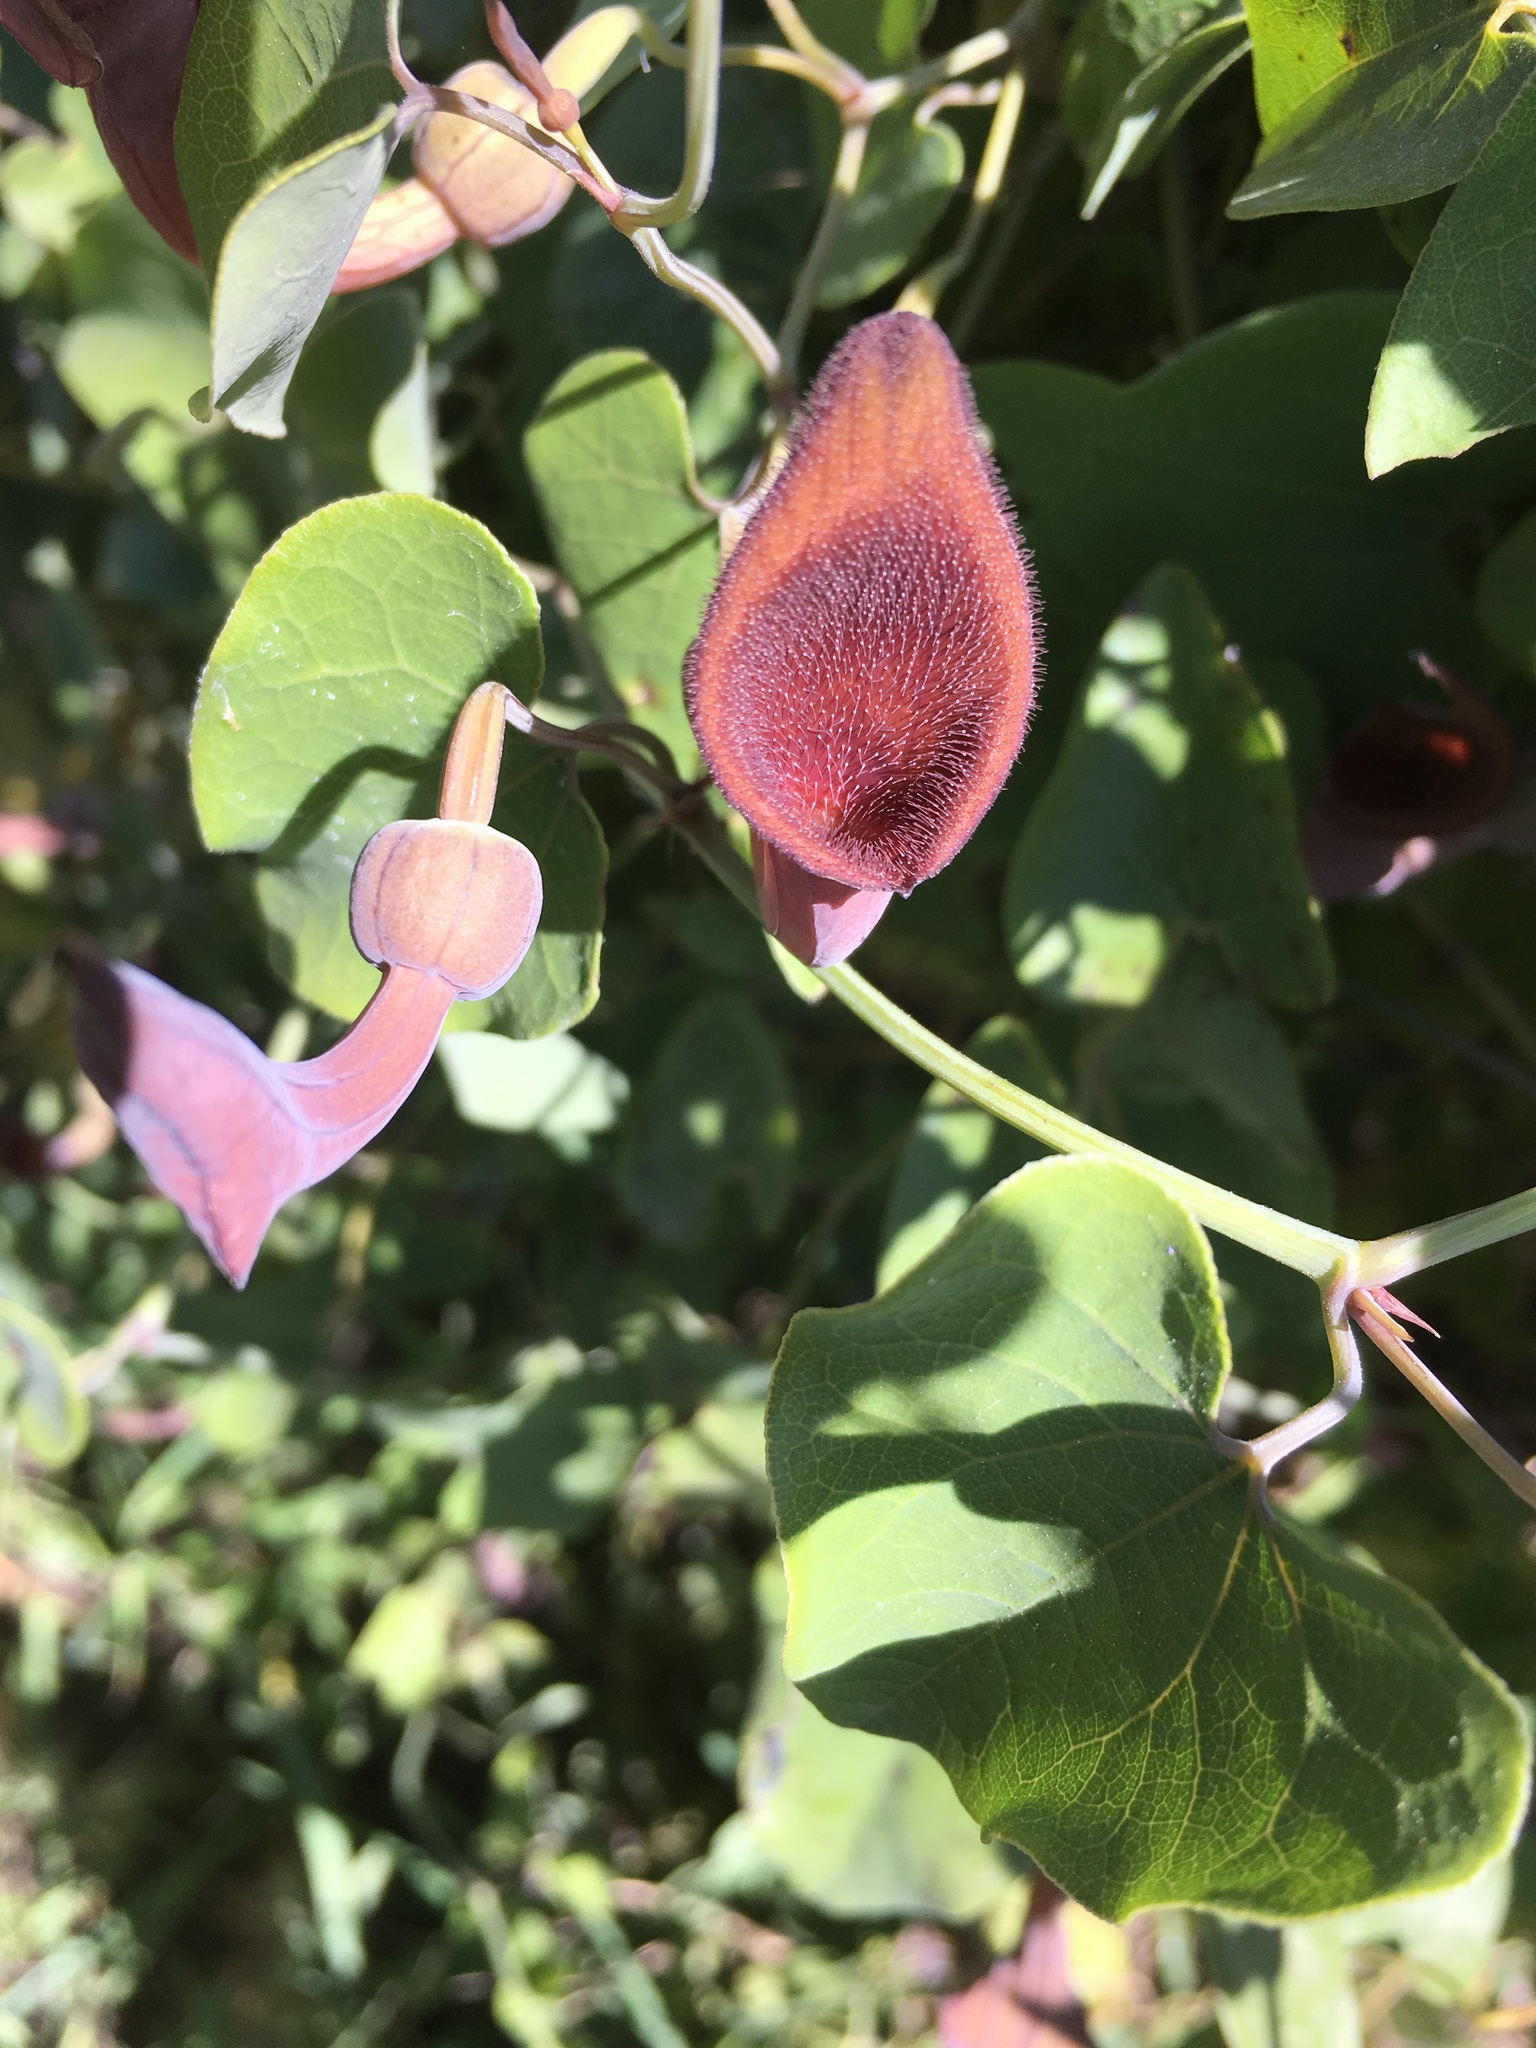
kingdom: Plantae
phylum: Tracheophyta
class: Magnoliopsida
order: Piperales
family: Aristolochiaceae
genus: Aristolochia
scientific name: Aristolochia baetica
